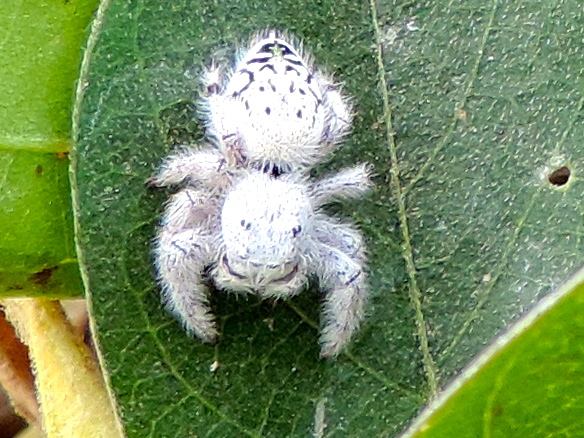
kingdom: Animalia
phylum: Arthropoda
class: Arachnida
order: Araneae
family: Salticidae
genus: Paraphidippus
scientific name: Paraphidippus fartilis
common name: Jumping spiders
